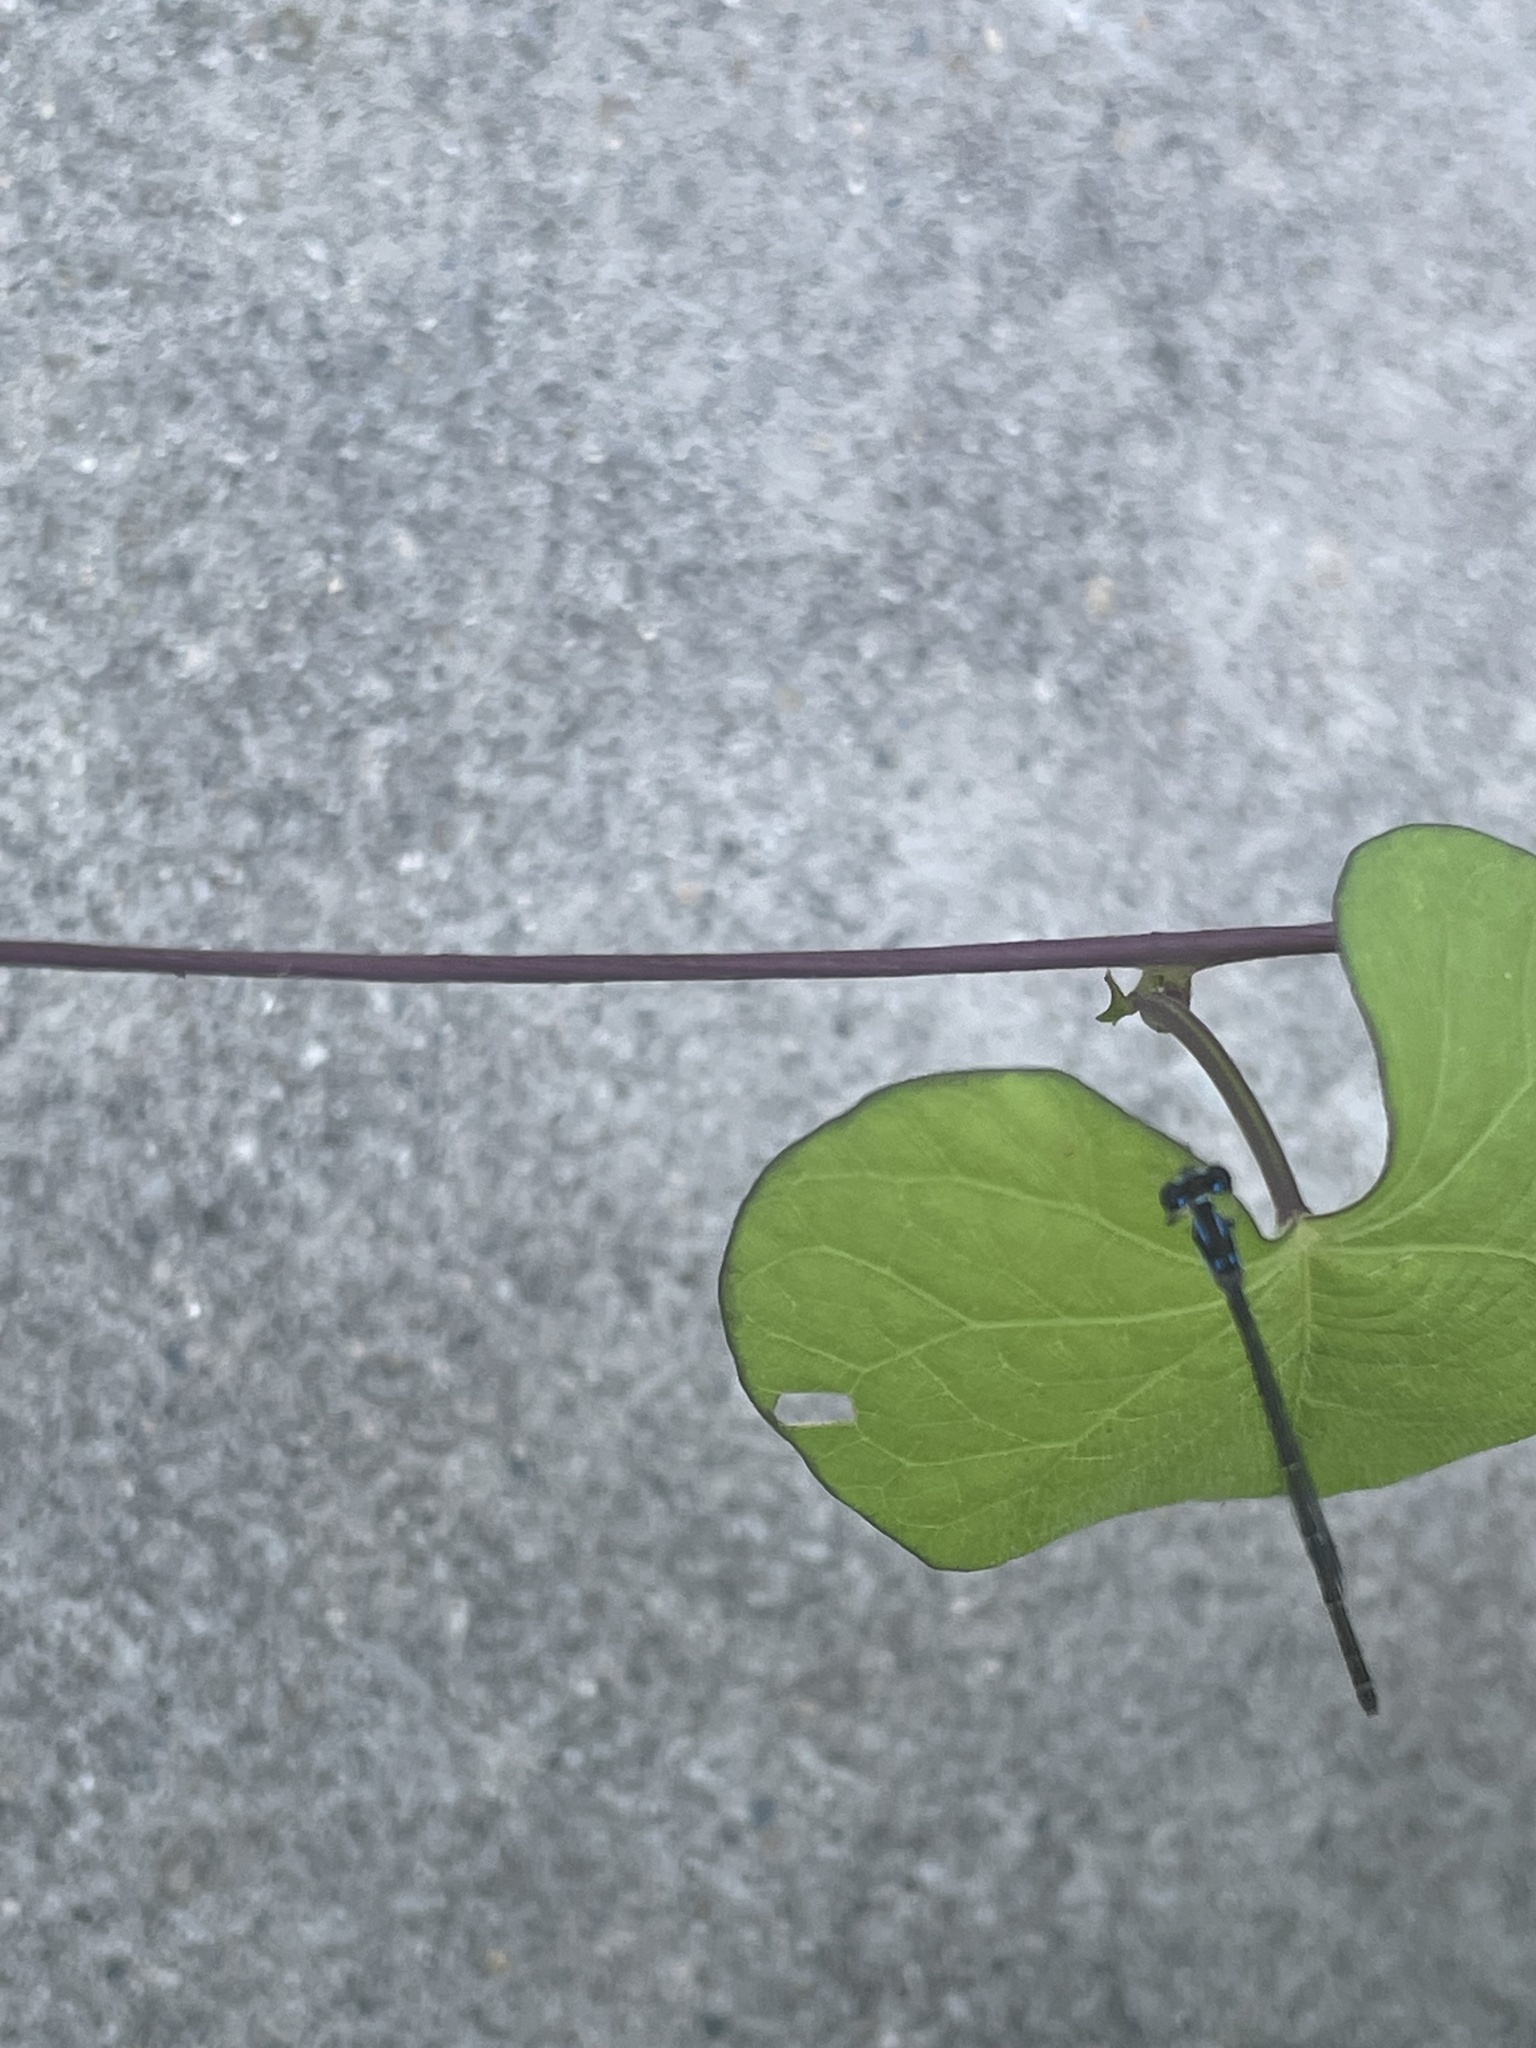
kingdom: Animalia
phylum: Arthropoda
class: Insecta
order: Odonata
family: Coenagrionidae
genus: Ischnura
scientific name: Ischnura posita
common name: Fragile forktail
